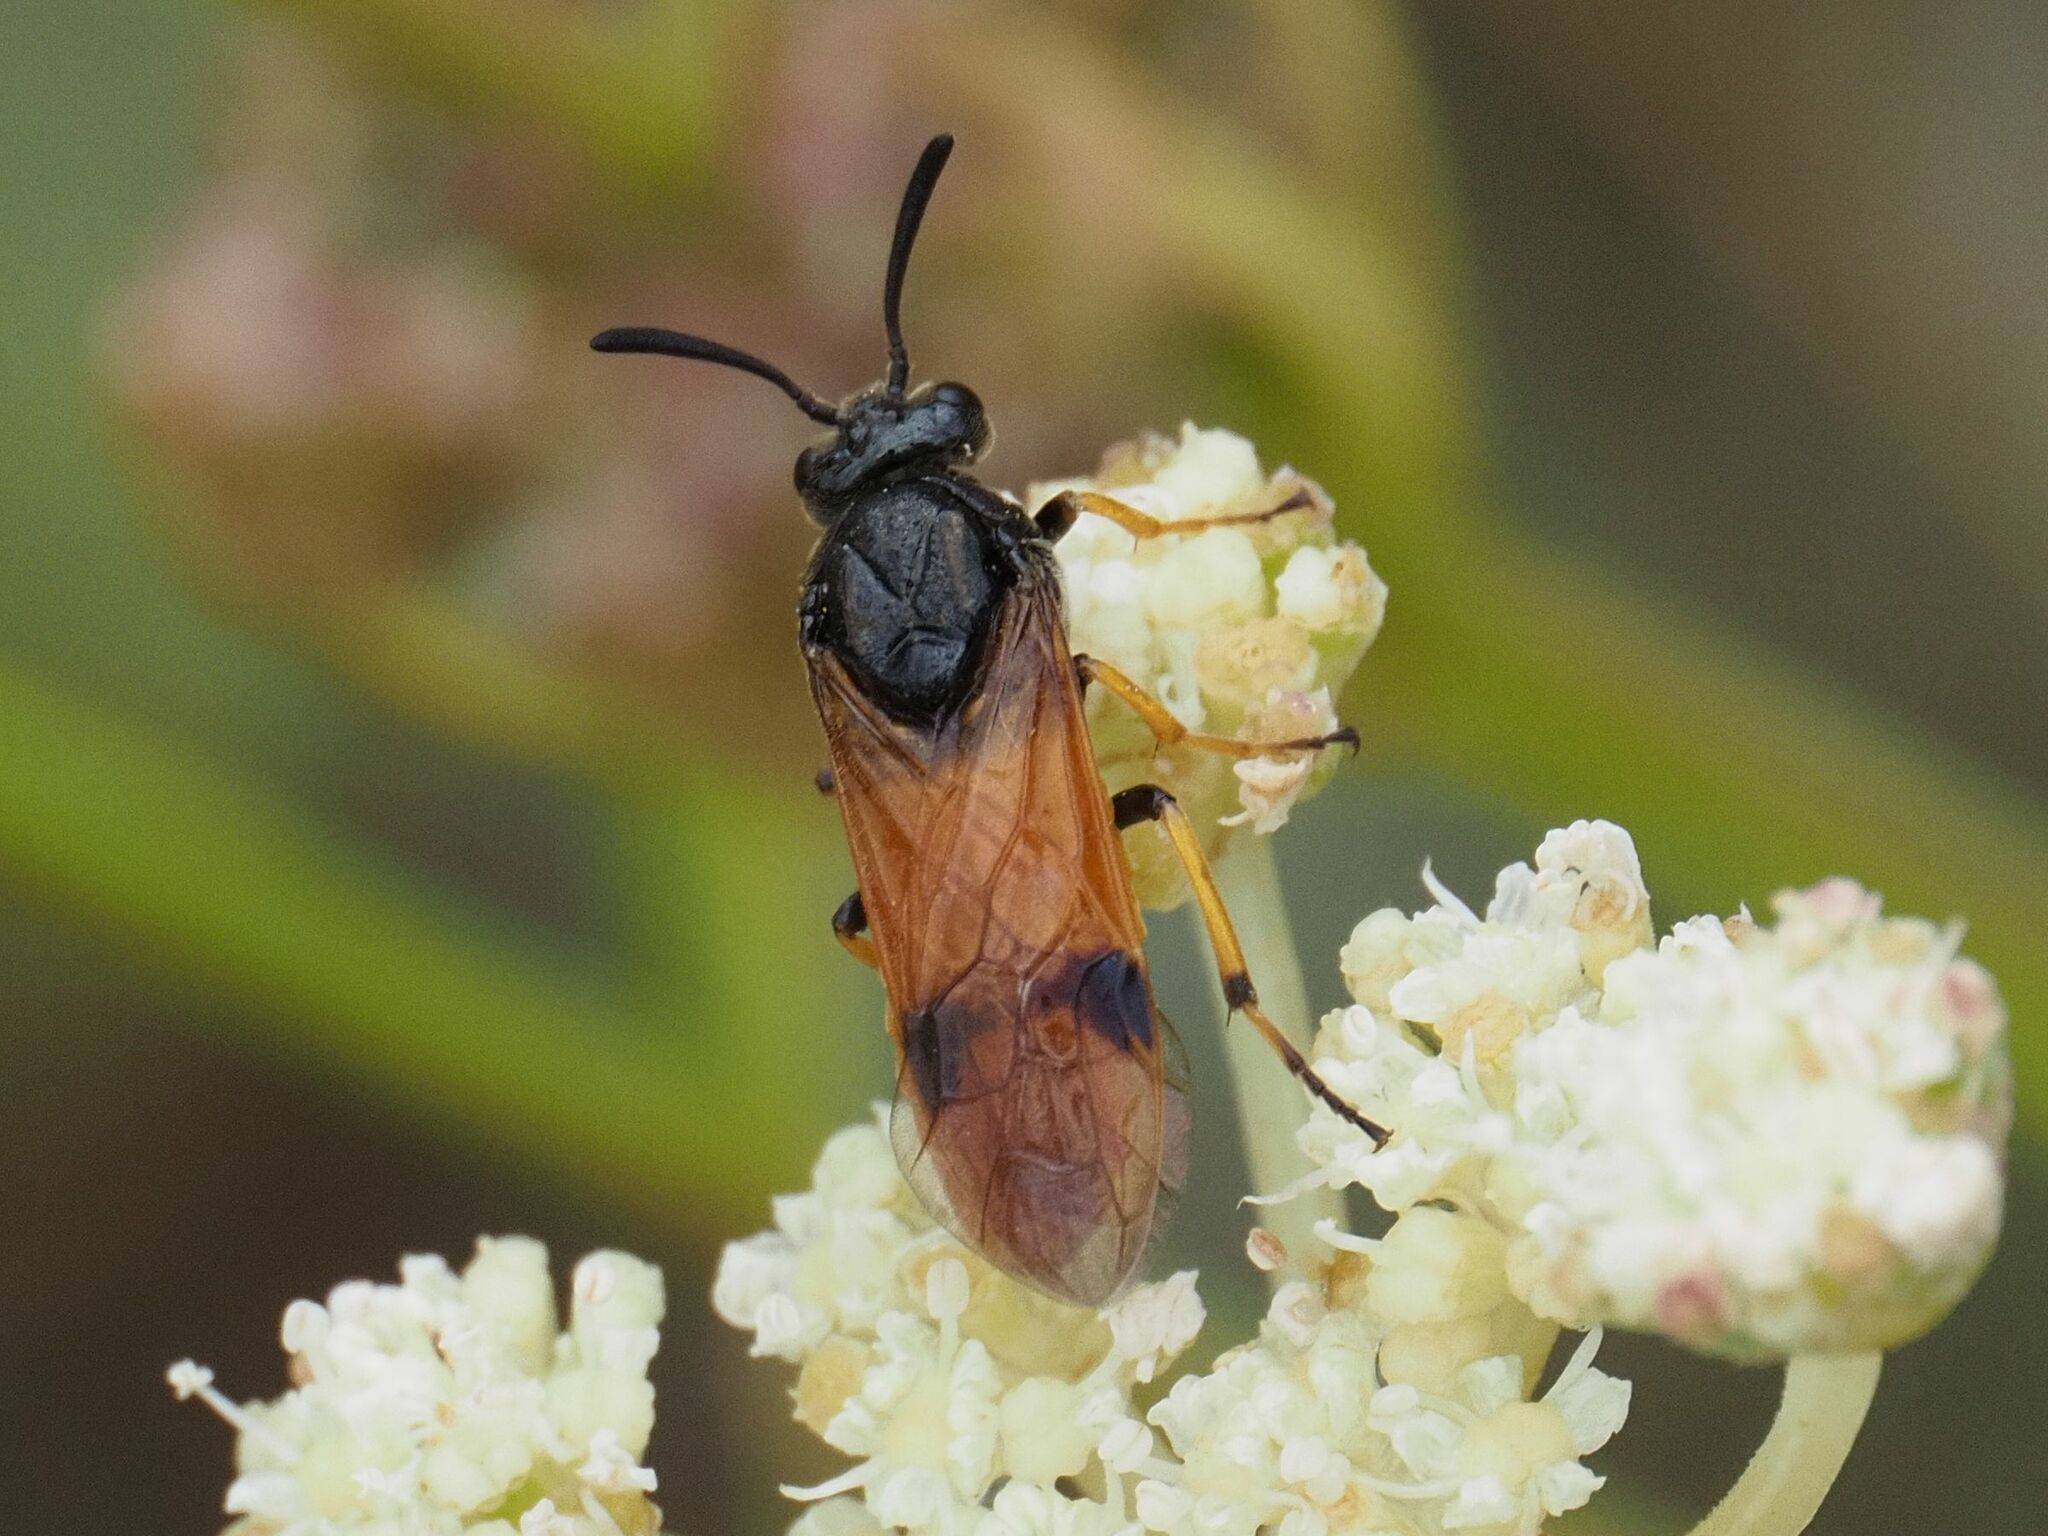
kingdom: Animalia
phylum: Arthropoda
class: Insecta
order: Hymenoptera
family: Argidae
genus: Arge
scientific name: Arge melanochra
